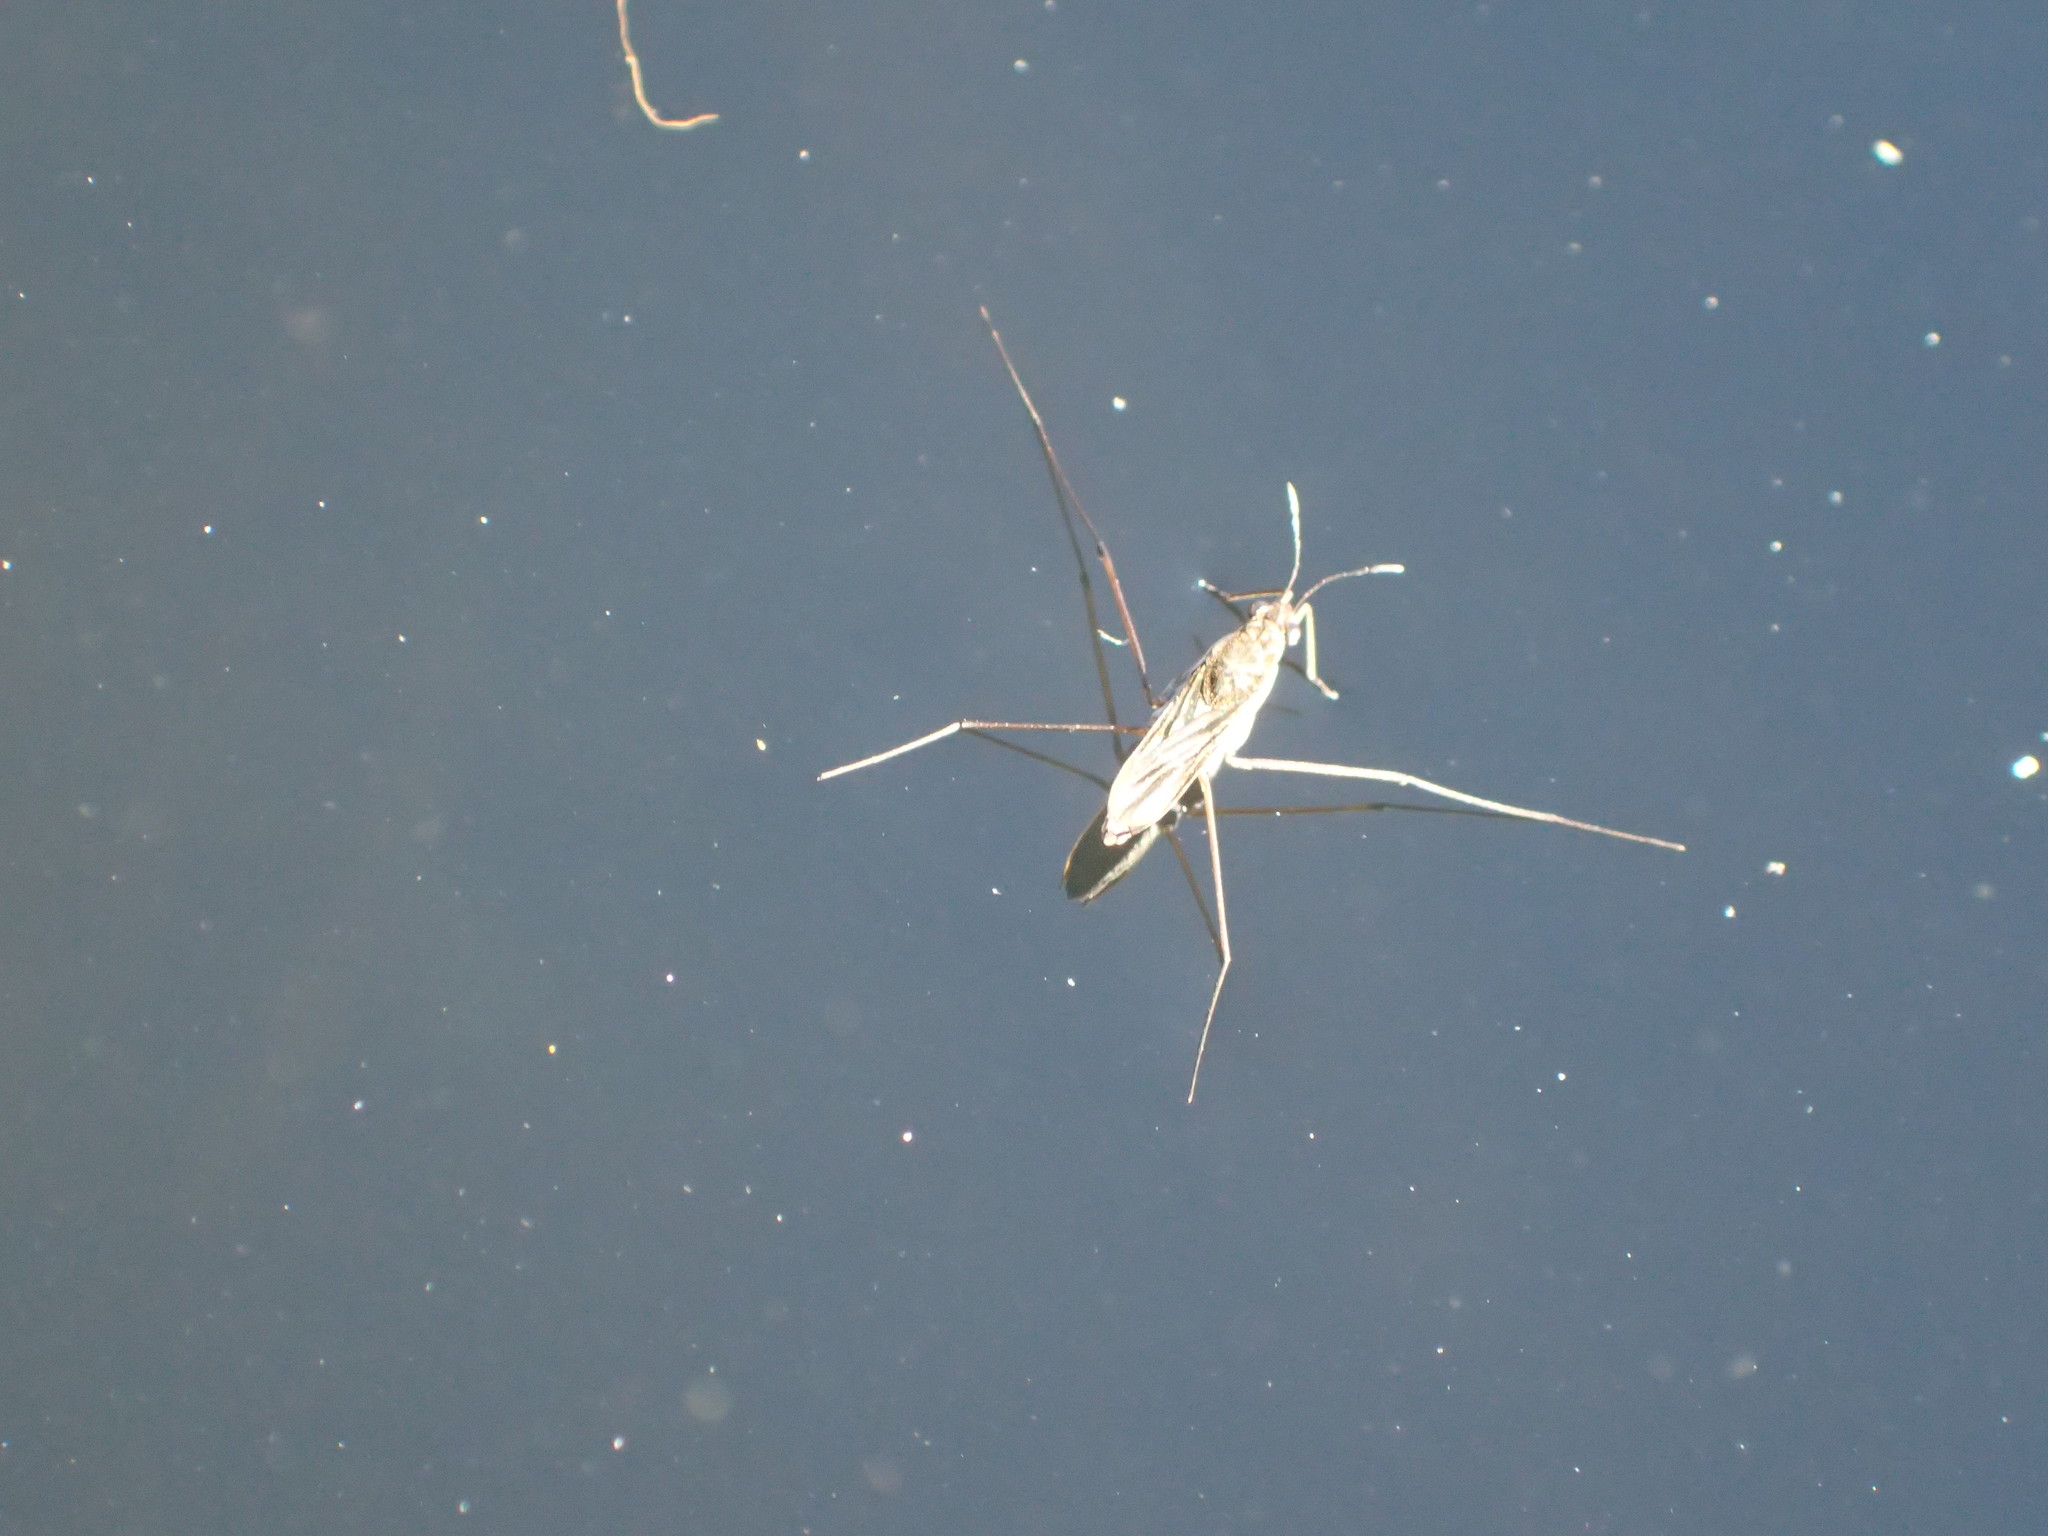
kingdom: Animalia
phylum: Arthropoda
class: Insecta
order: Hemiptera
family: Gerridae
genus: Gerris
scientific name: Gerris
